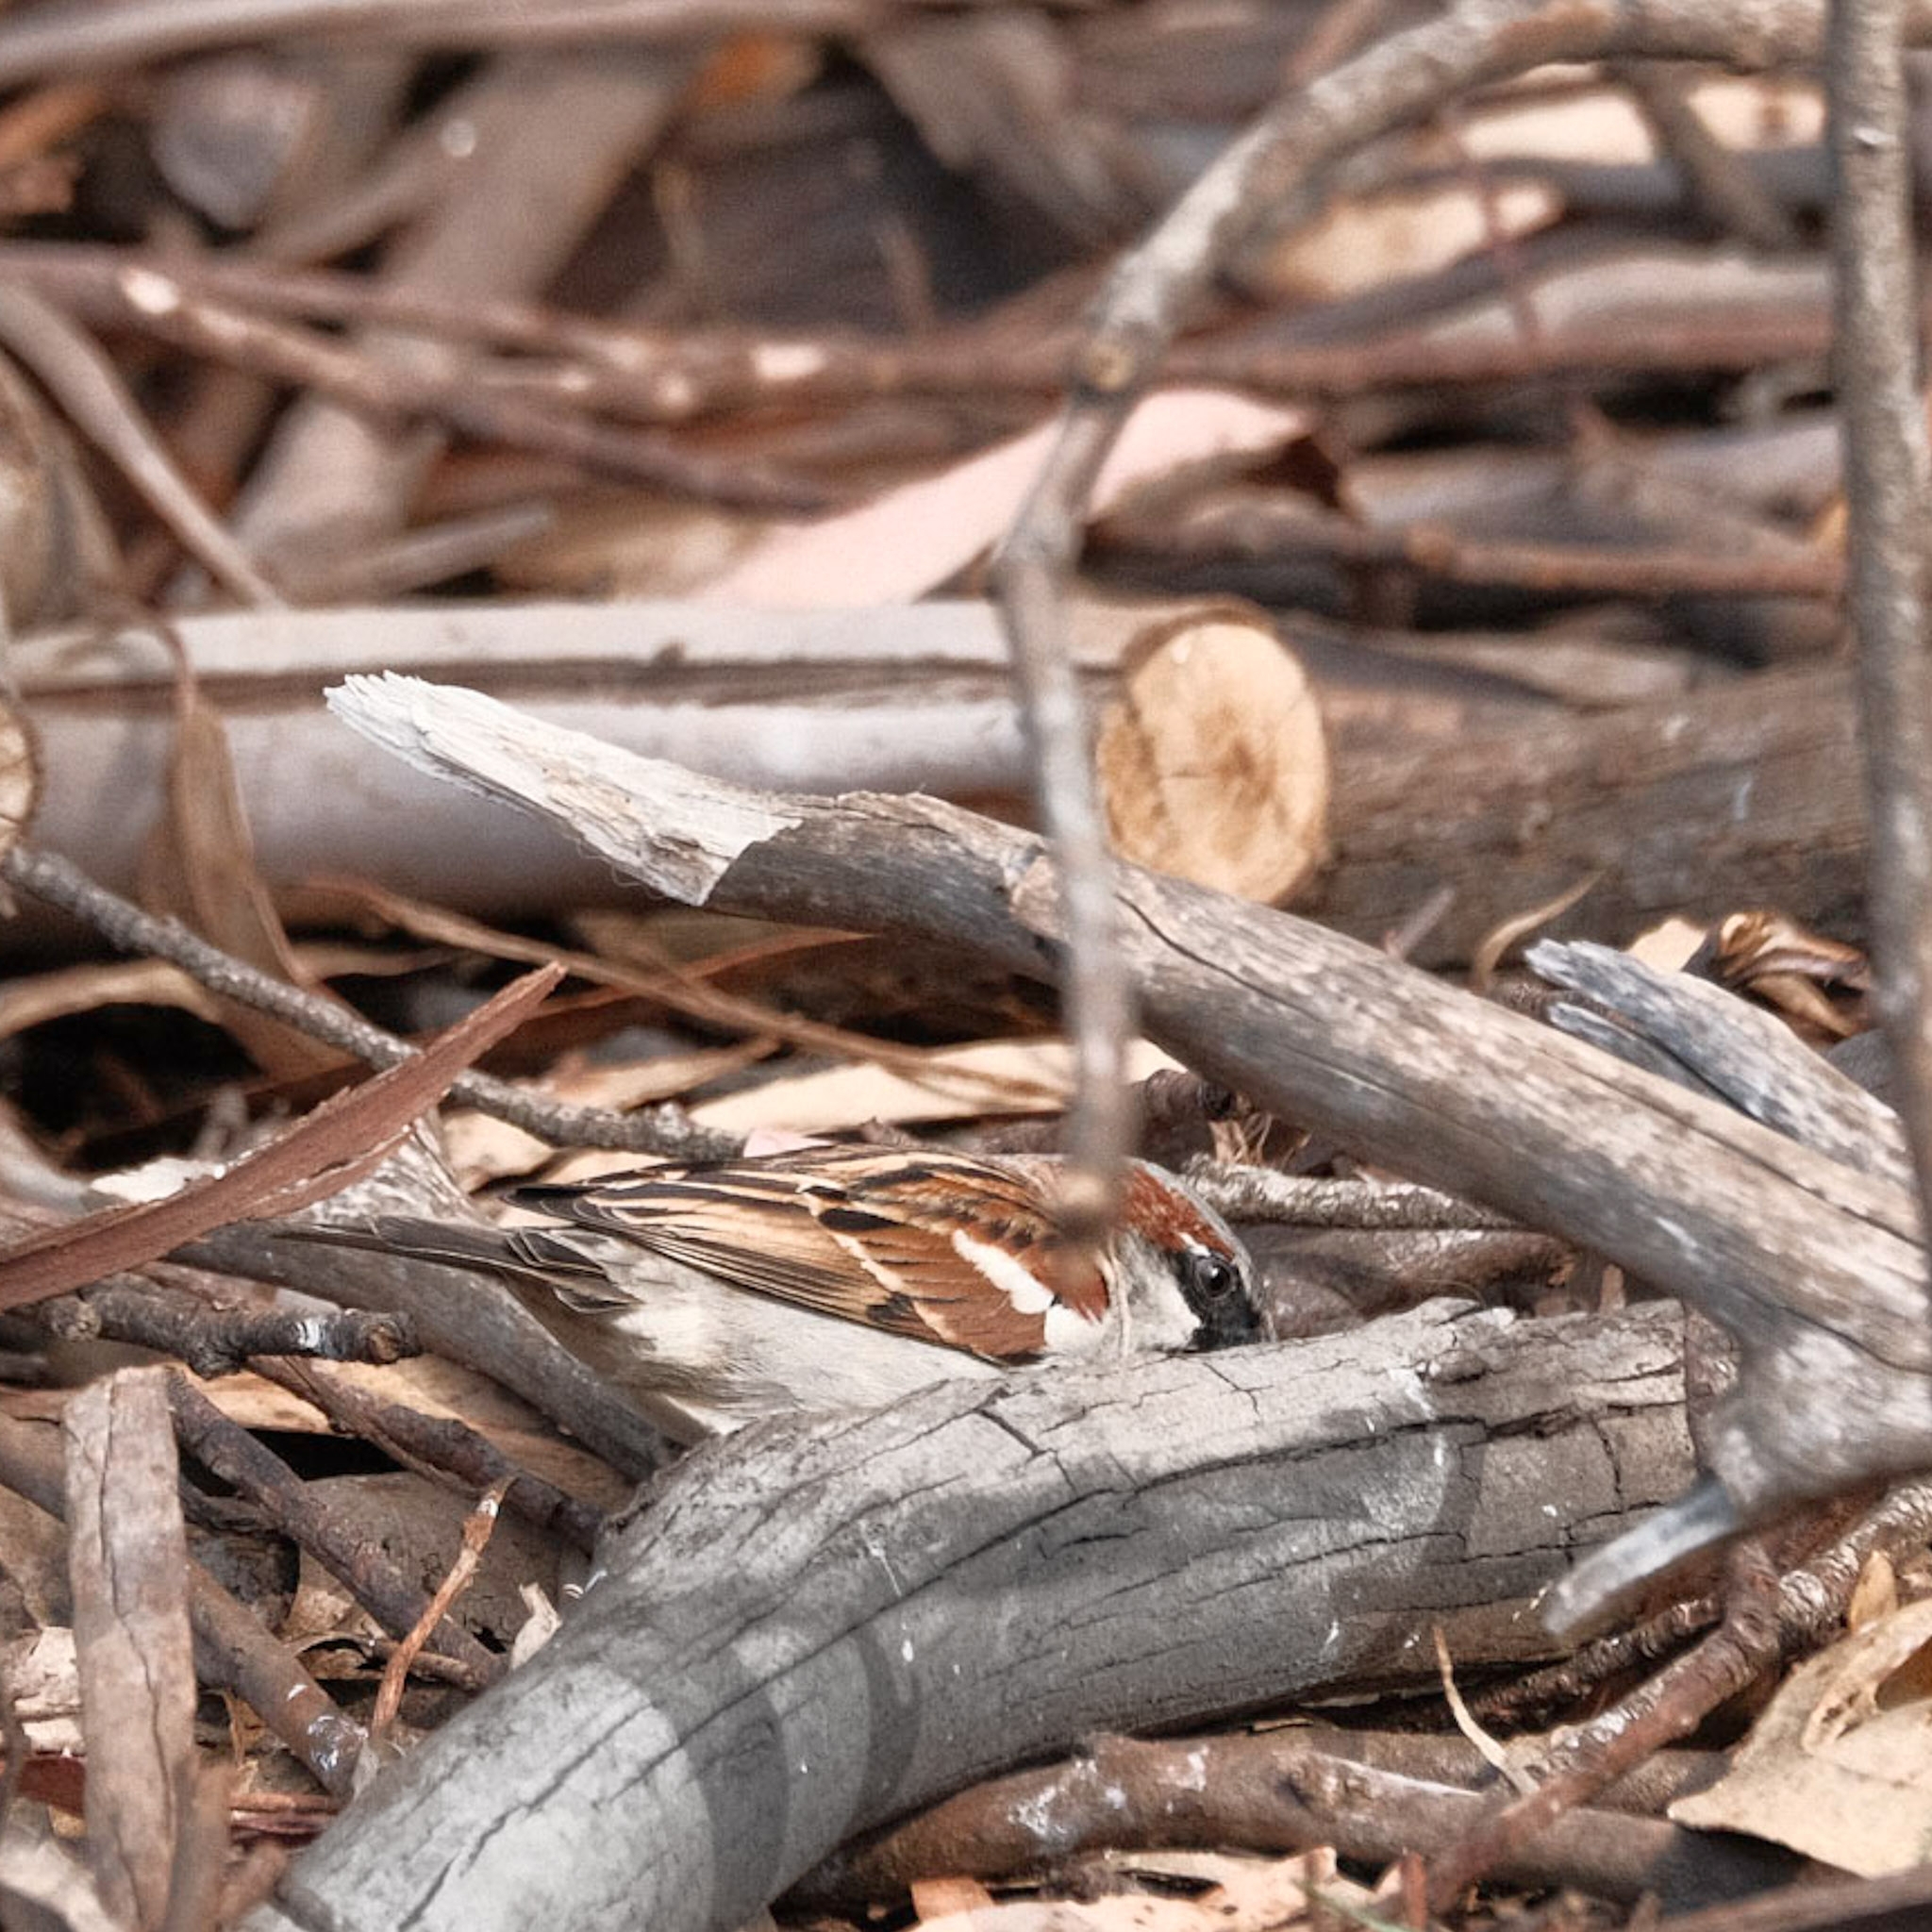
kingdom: Animalia
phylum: Chordata
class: Aves
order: Passeriformes
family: Passeridae
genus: Passer
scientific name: Passer domesticus
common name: House sparrow
